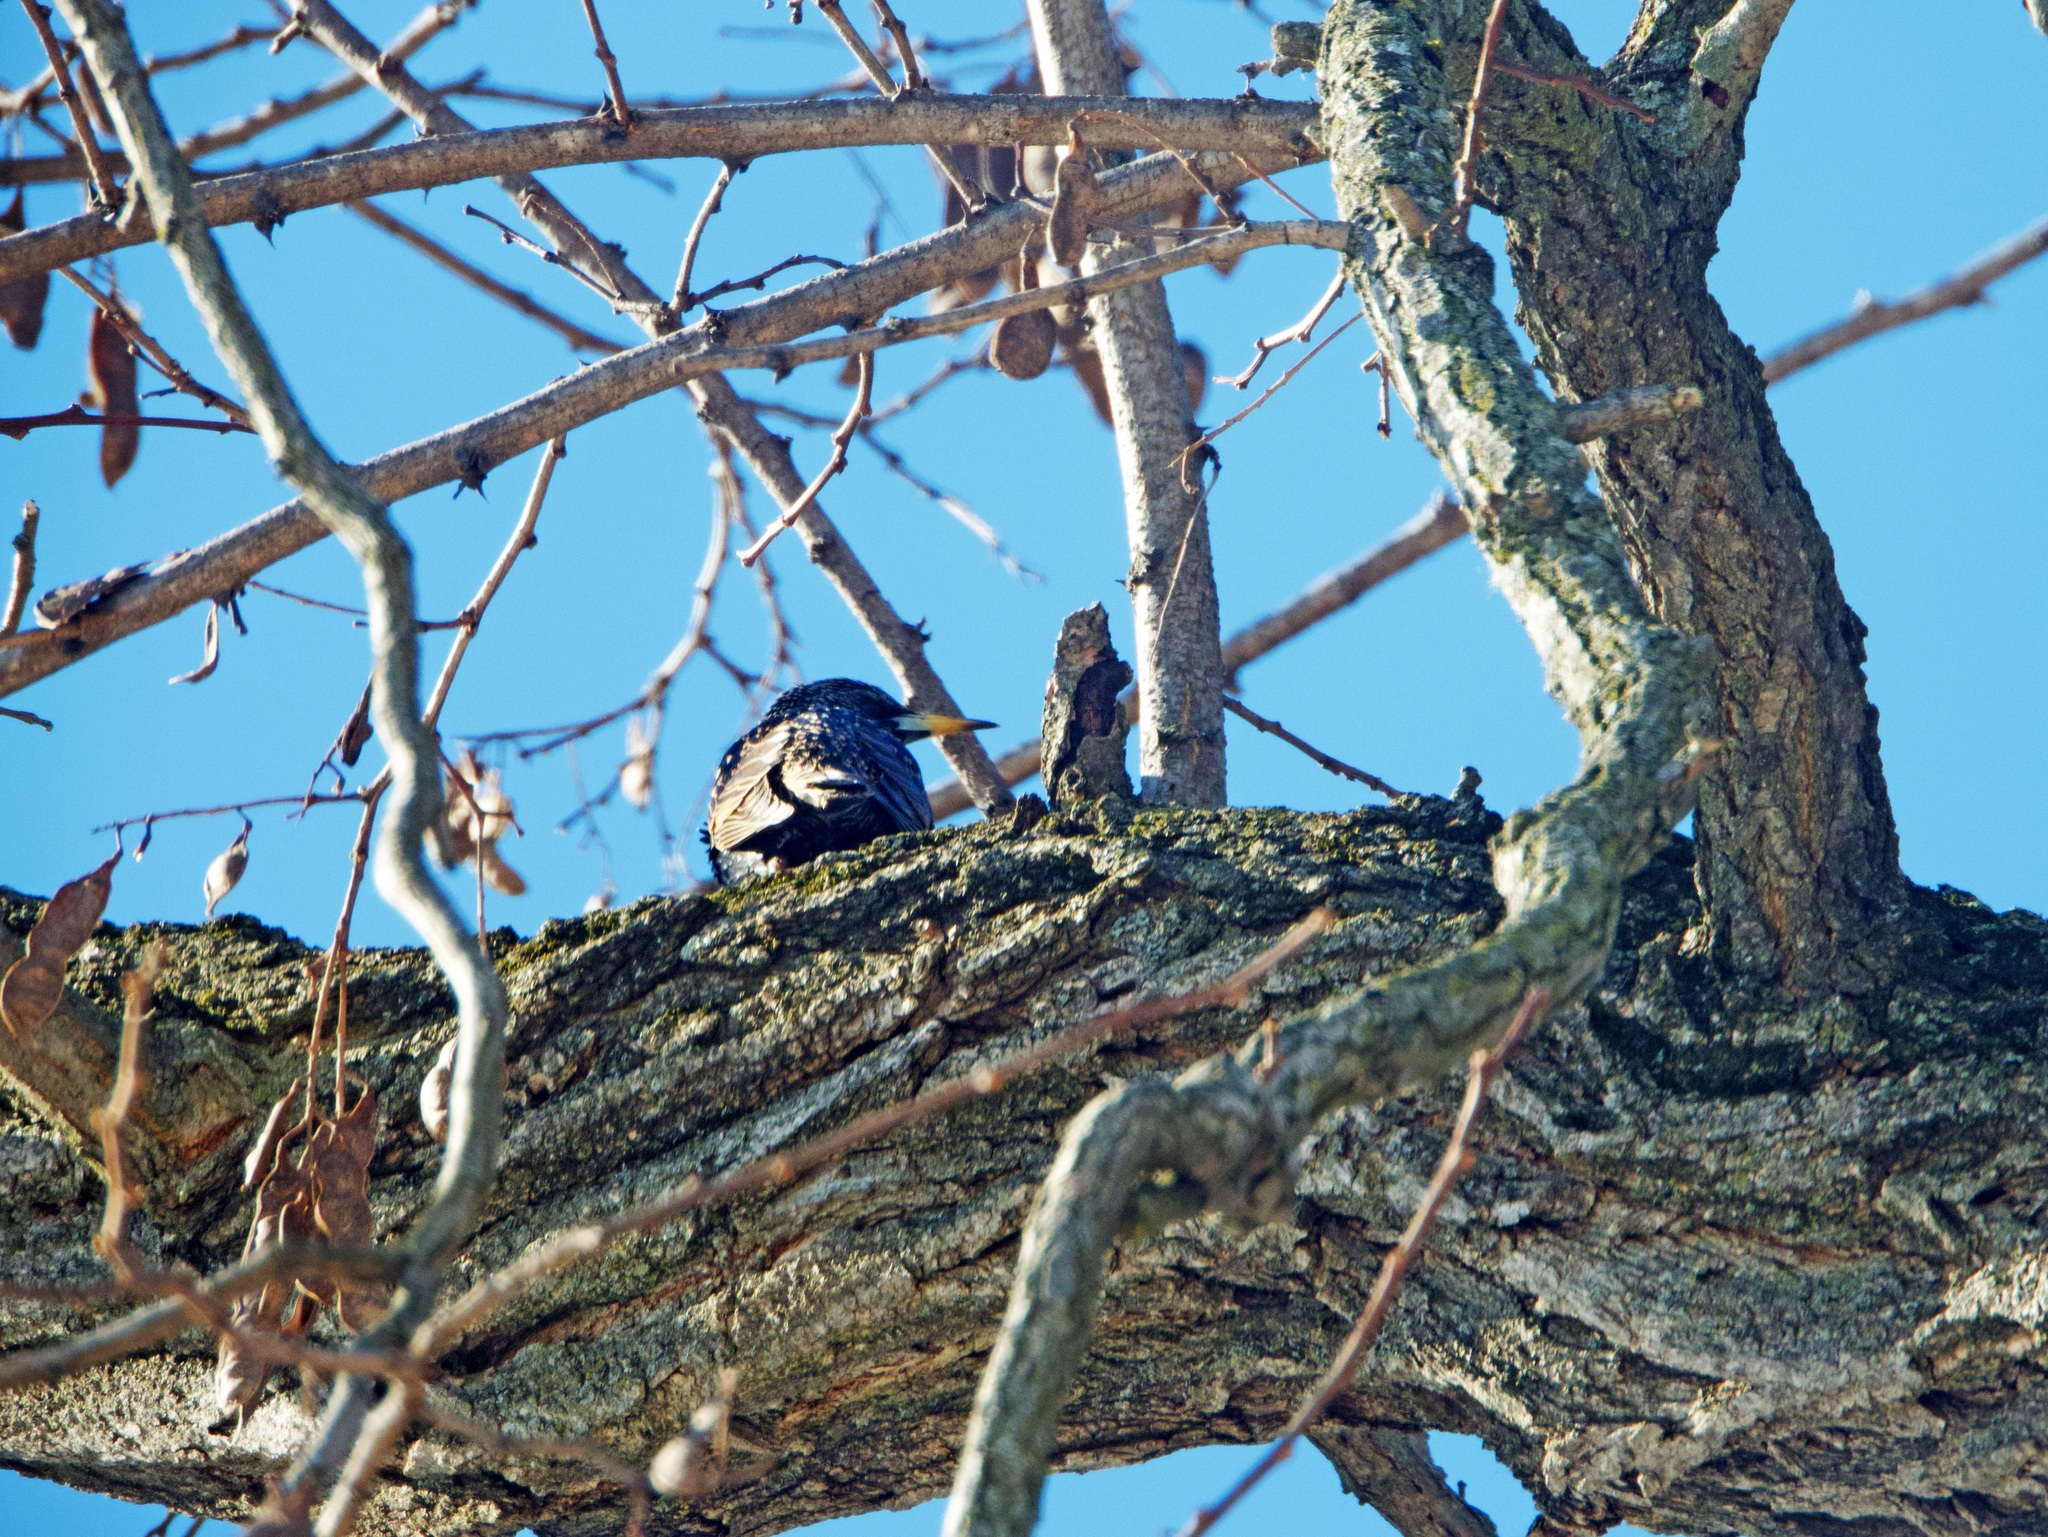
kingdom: Animalia
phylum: Chordata
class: Aves
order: Passeriformes
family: Sturnidae
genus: Sturnus
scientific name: Sturnus vulgaris
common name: Common starling
